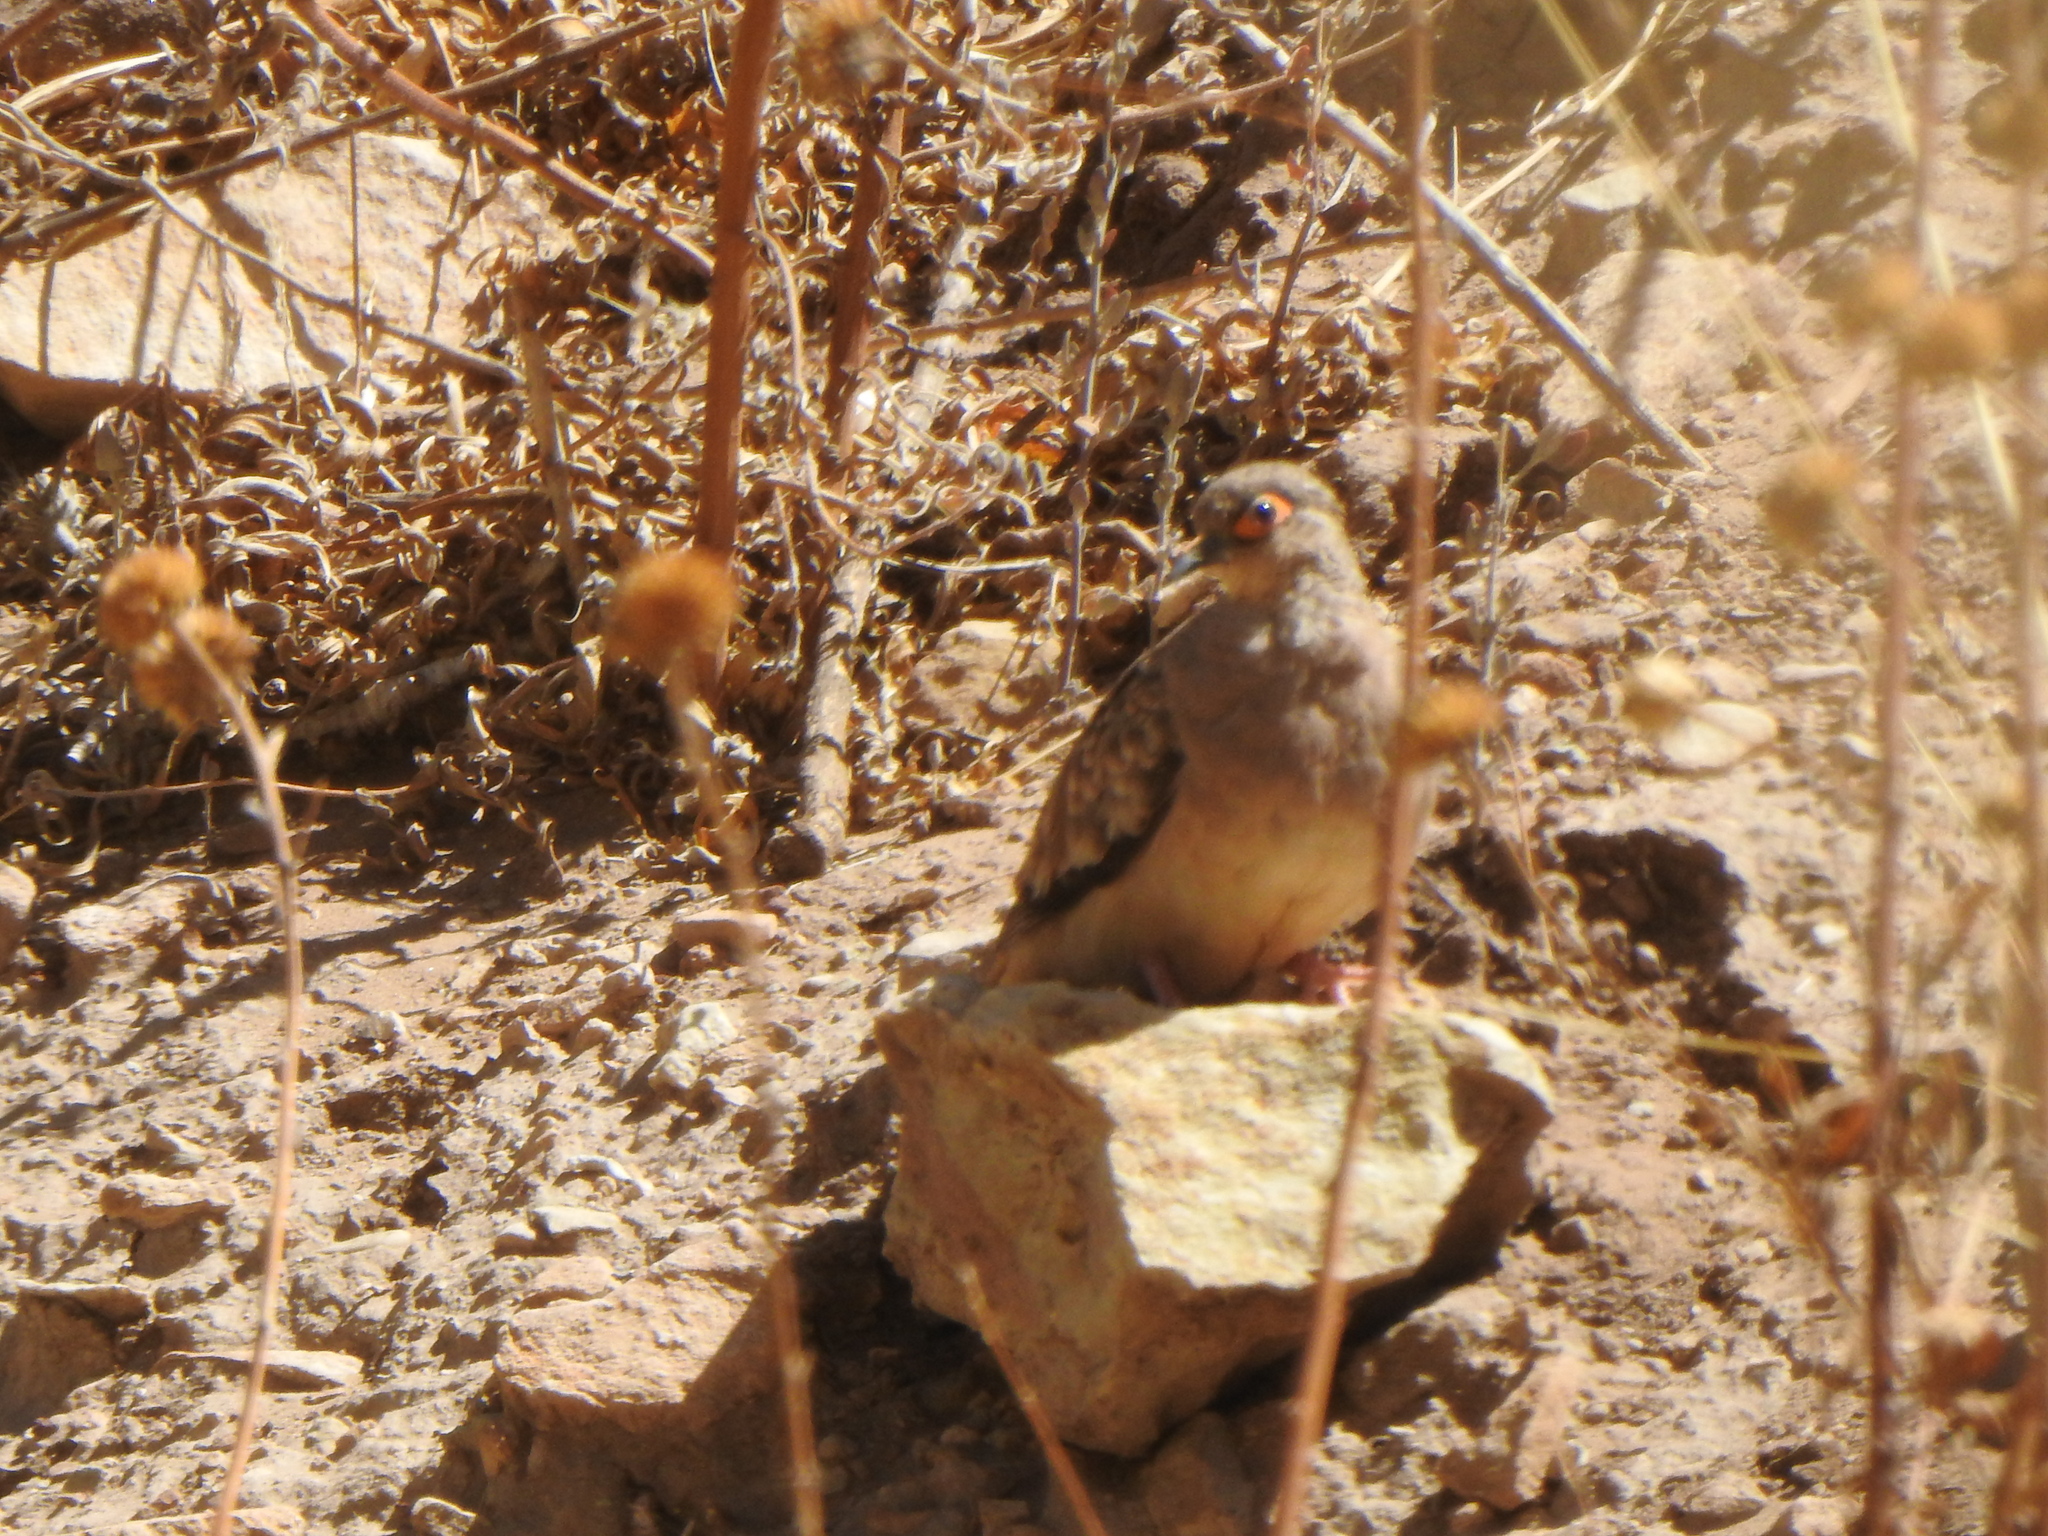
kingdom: Animalia
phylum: Chordata
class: Aves
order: Columbiformes
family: Columbidae
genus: Metriopelia
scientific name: Metriopelia ceciliae
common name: Bare-faced ground dove
